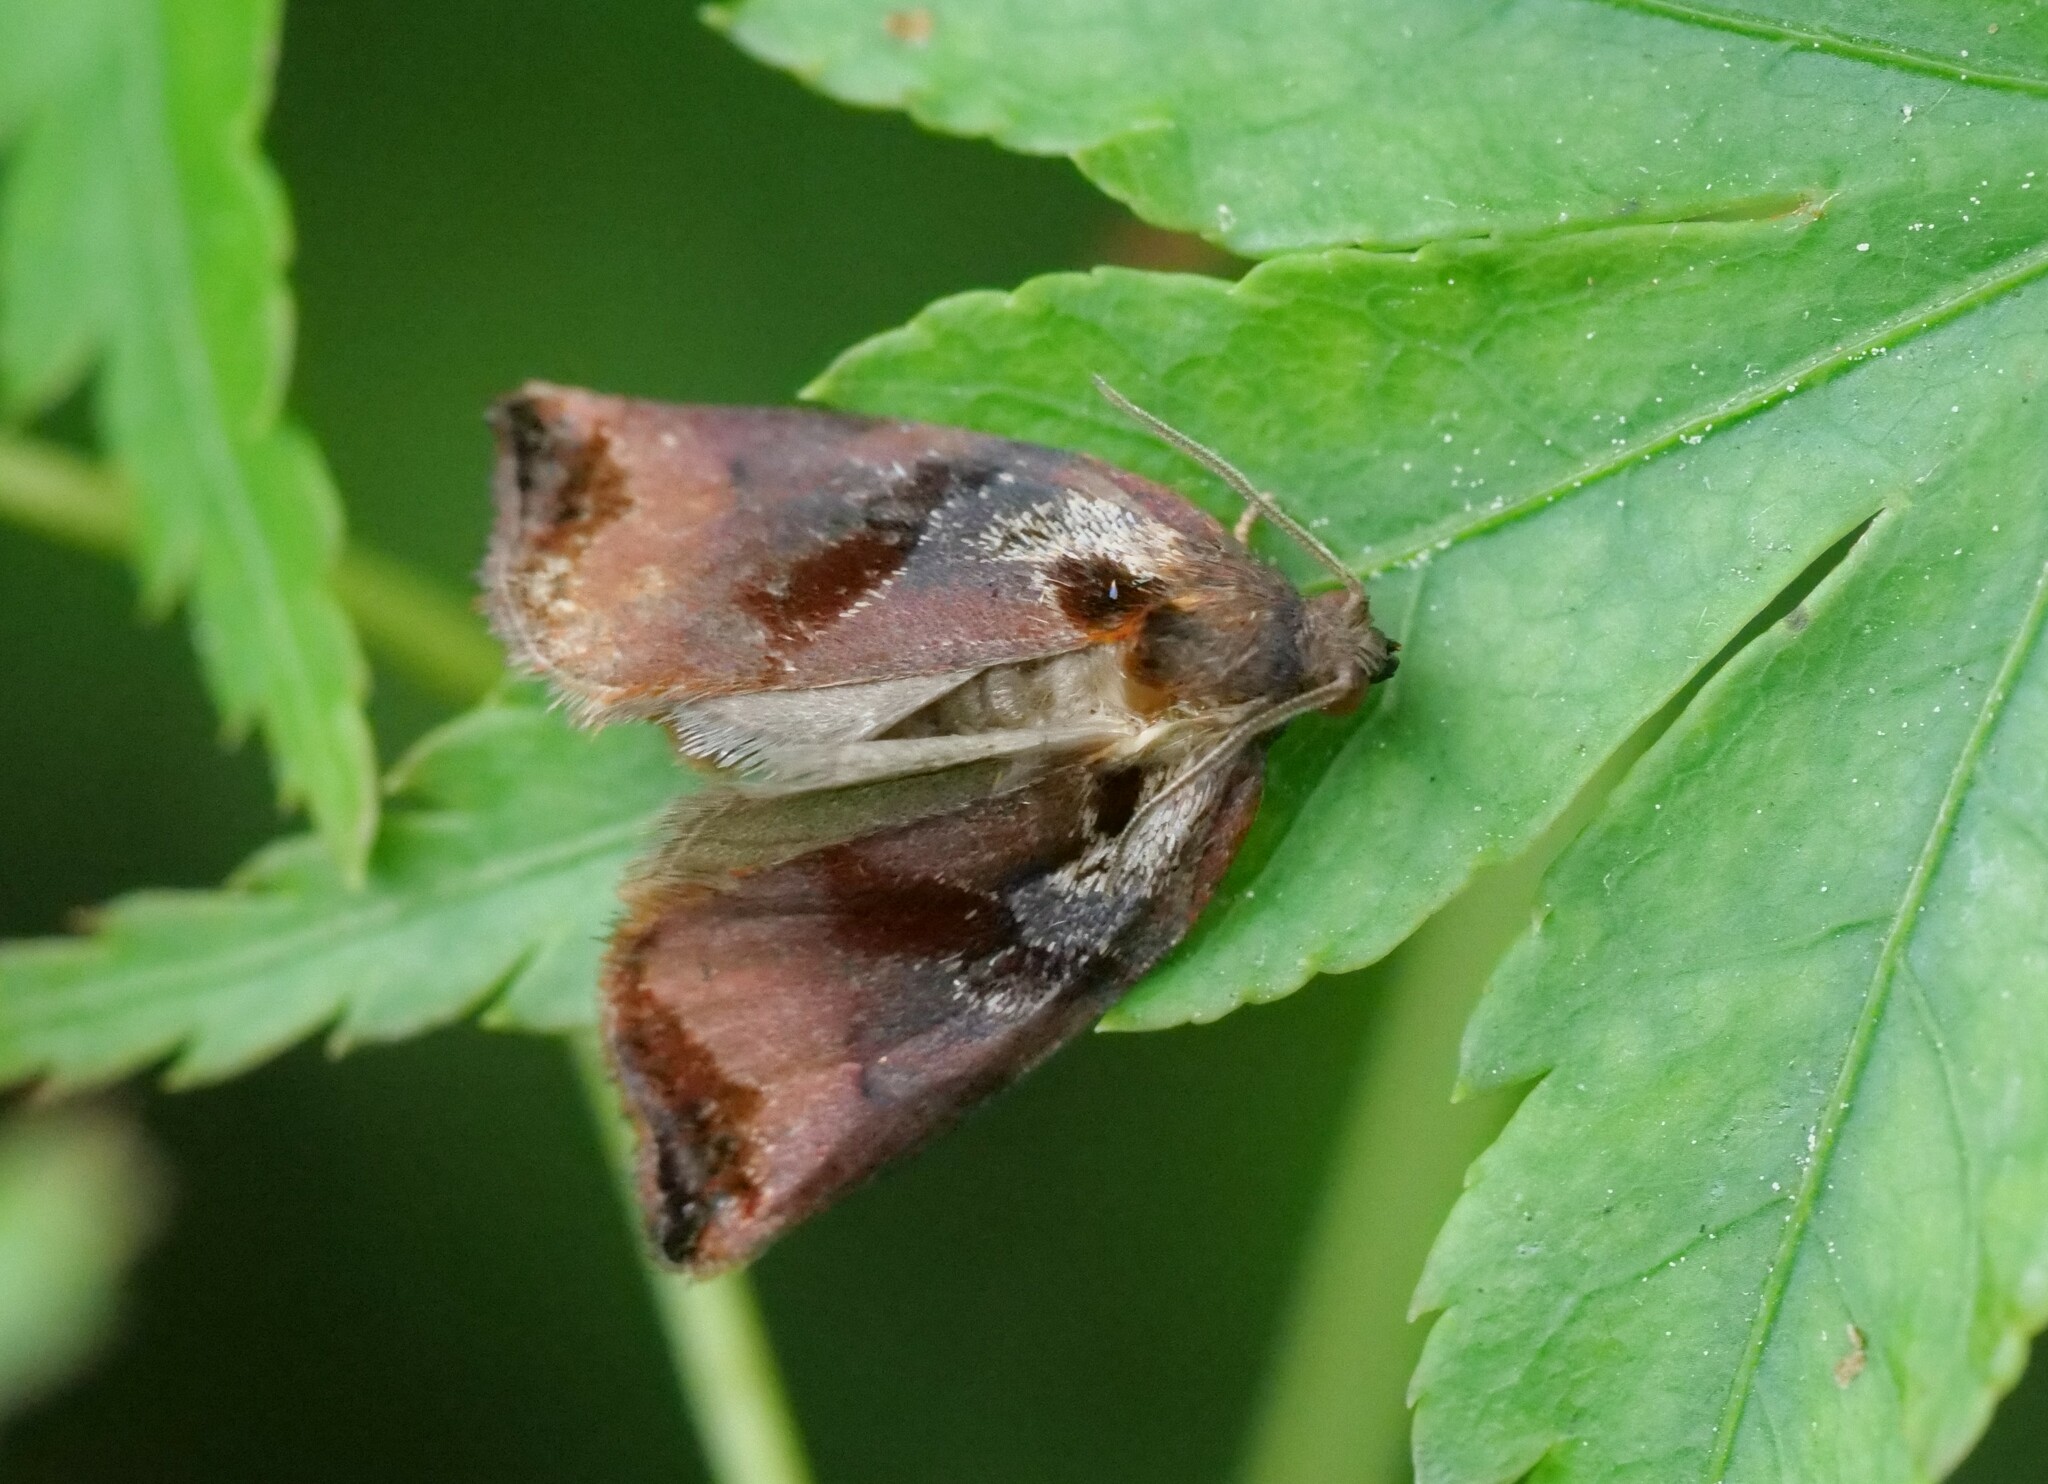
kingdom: Animalia
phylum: Arthropoda
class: Insecta
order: Lepidoptera
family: Tortricidae
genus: Archips
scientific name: Archips podana
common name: Large fruit-tree tortrix
